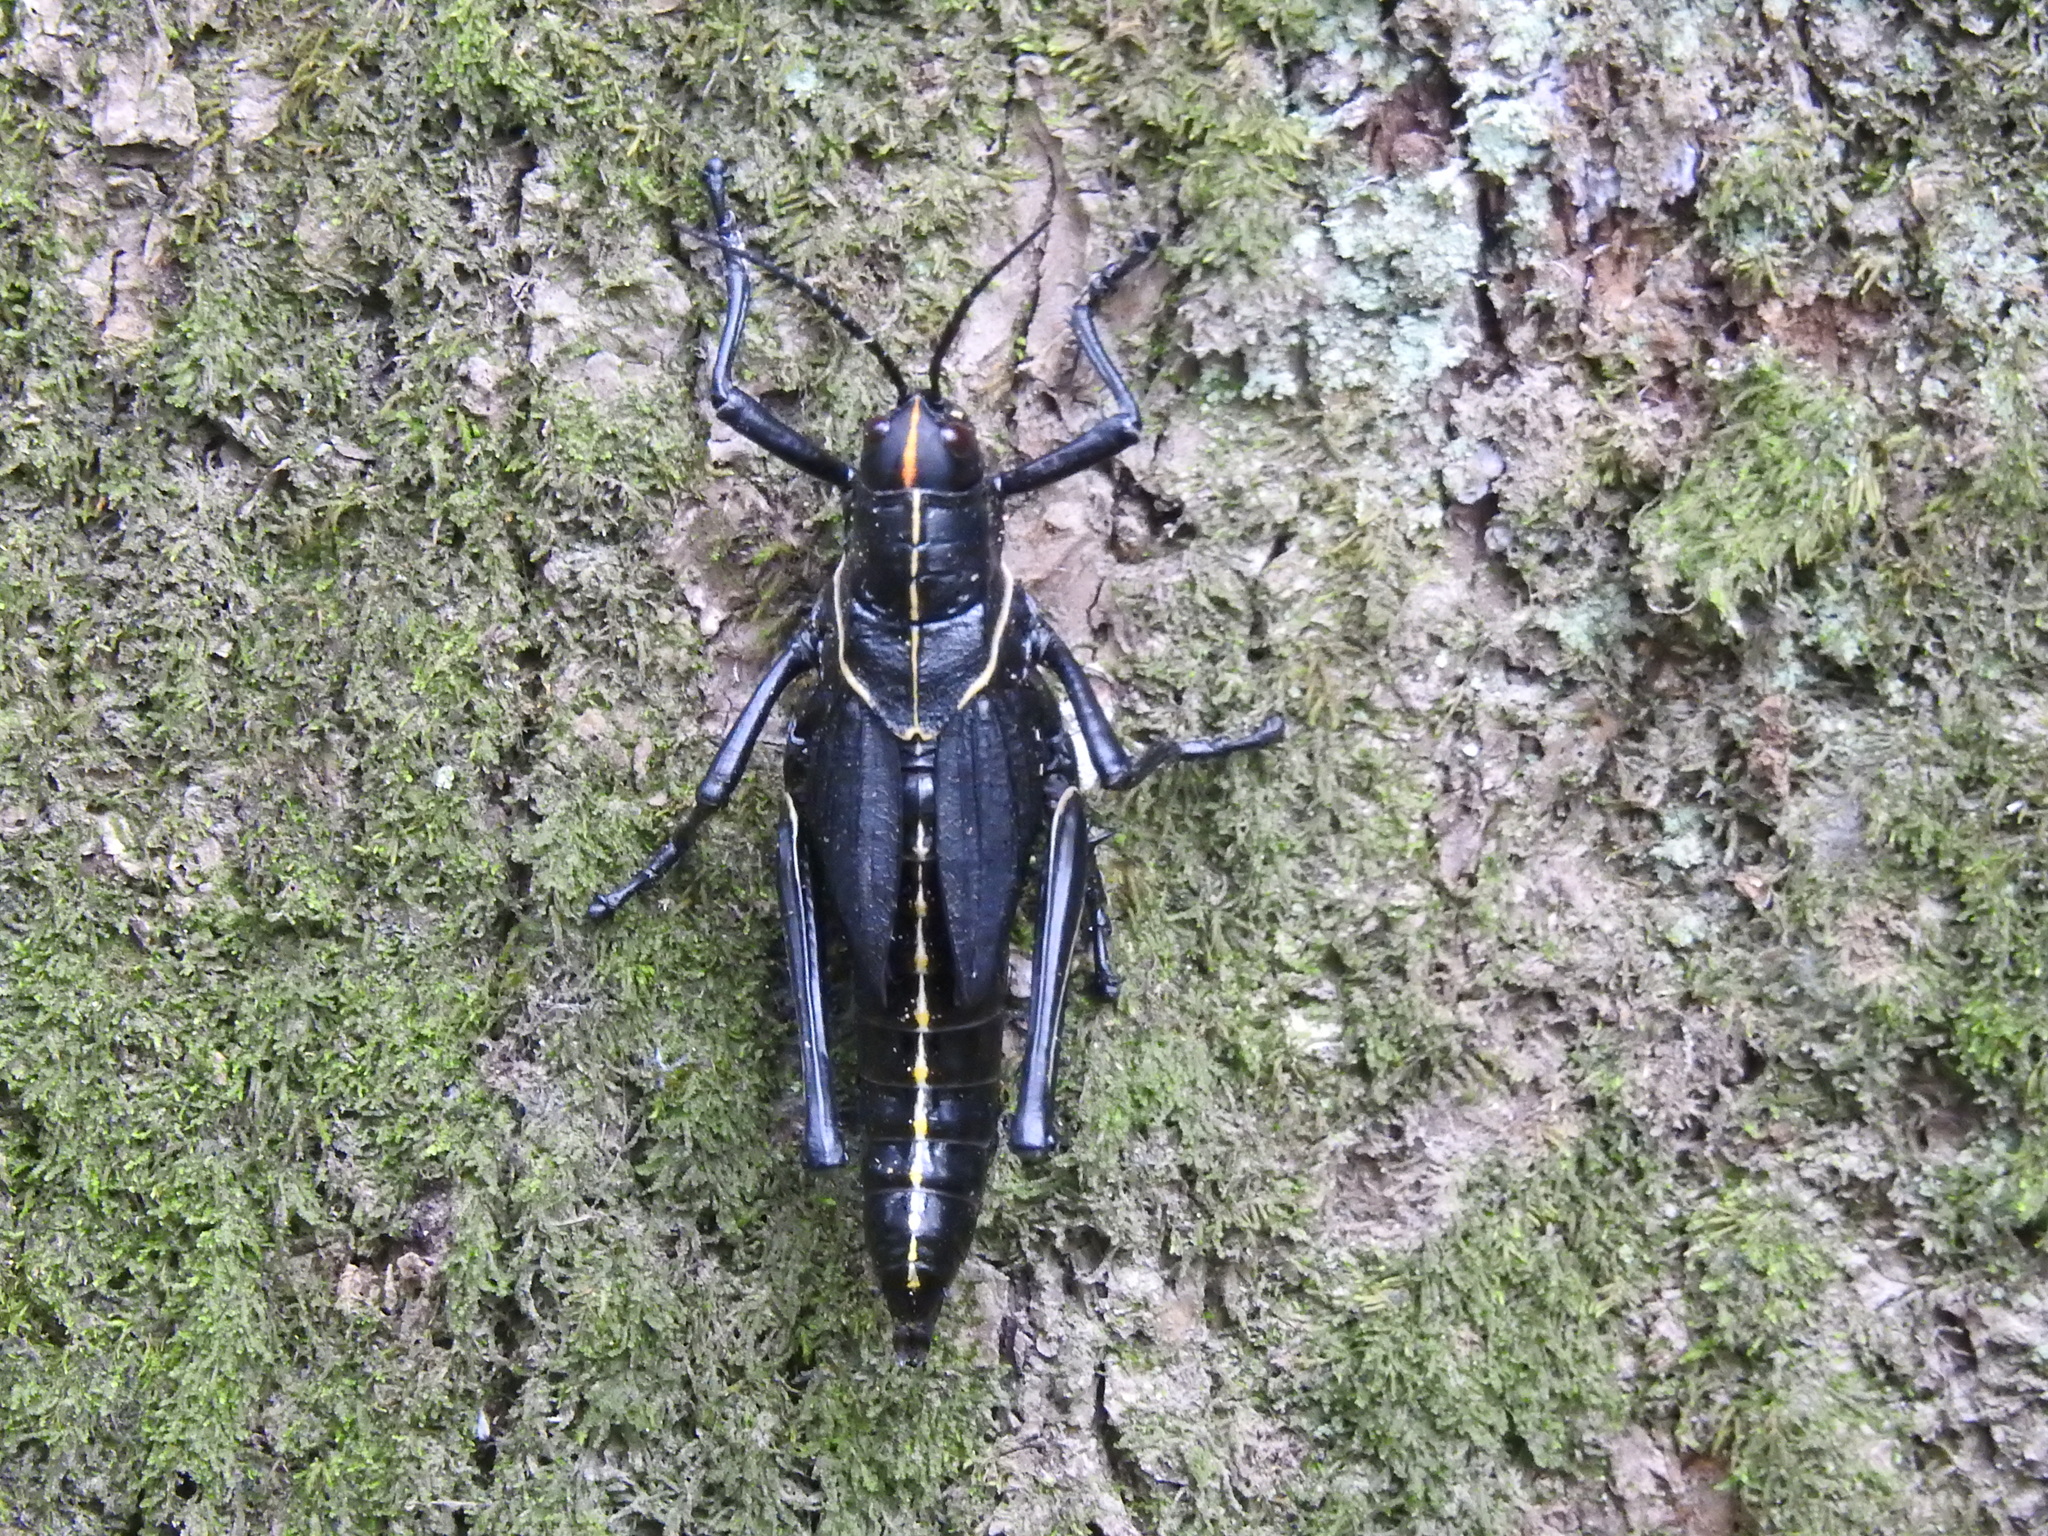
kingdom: Animalia
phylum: Arthropoda
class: Insecta
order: Orthoptera
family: Romaleidae
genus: Romalea
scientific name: Romalea microptera
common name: Eastern lubber grasshopper
